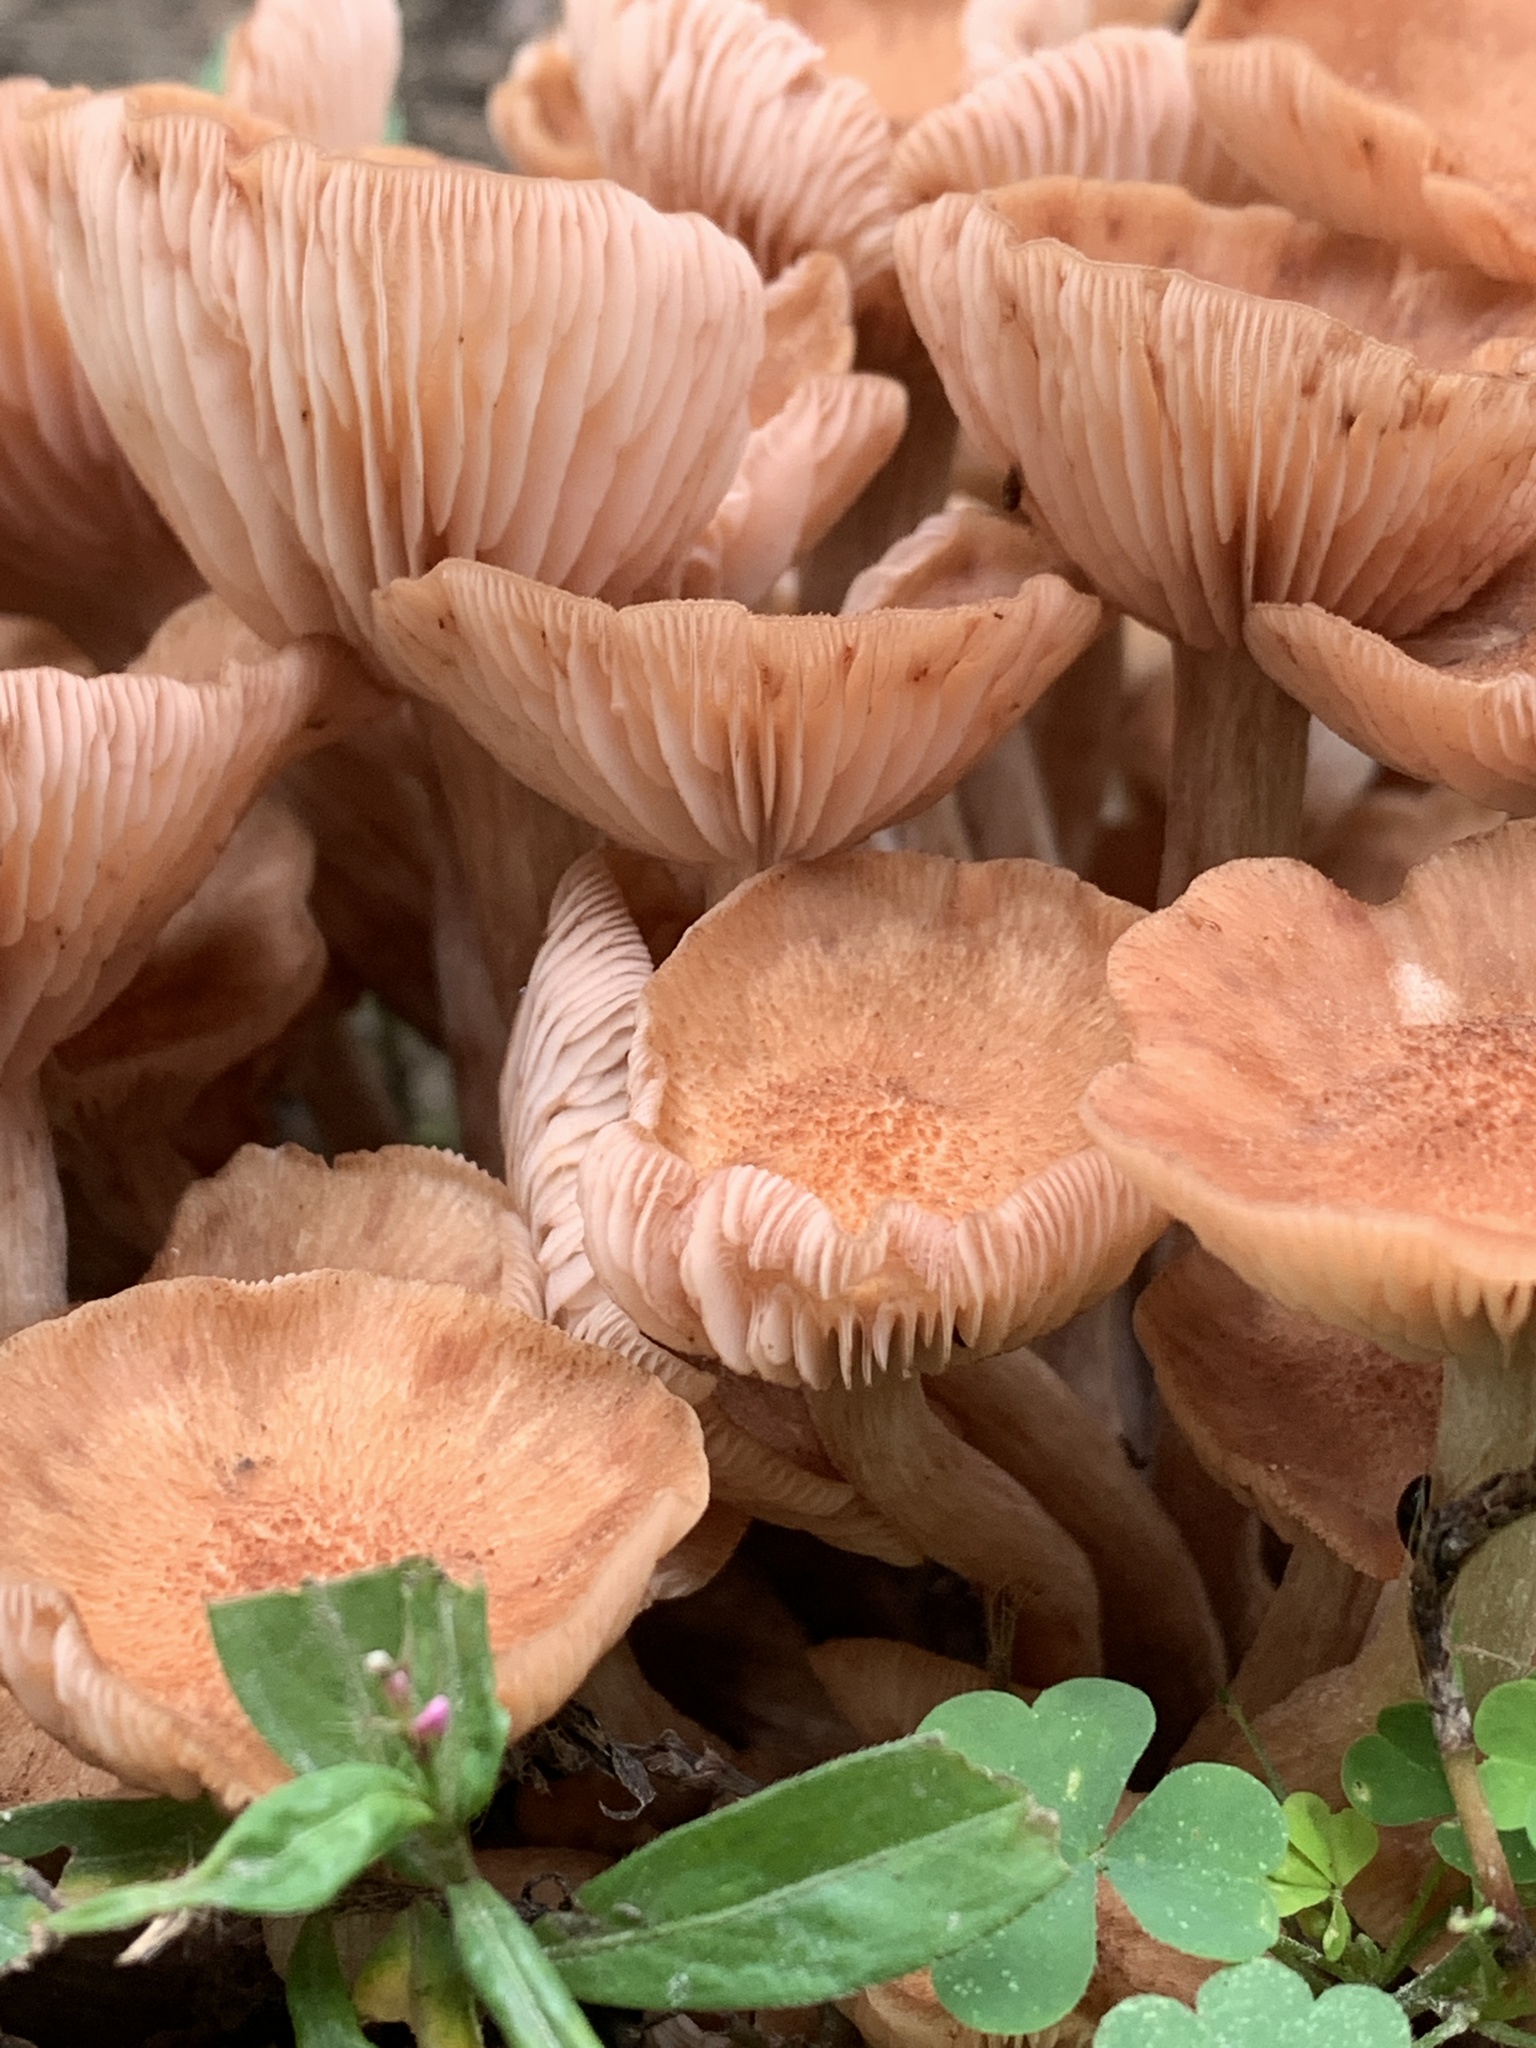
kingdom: Fungi
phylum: Basidiomycota
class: Agaricomycetes
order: Agaricales
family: Physalacriaceae
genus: Desarmillaria
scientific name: Desarmillaria caespitosa
